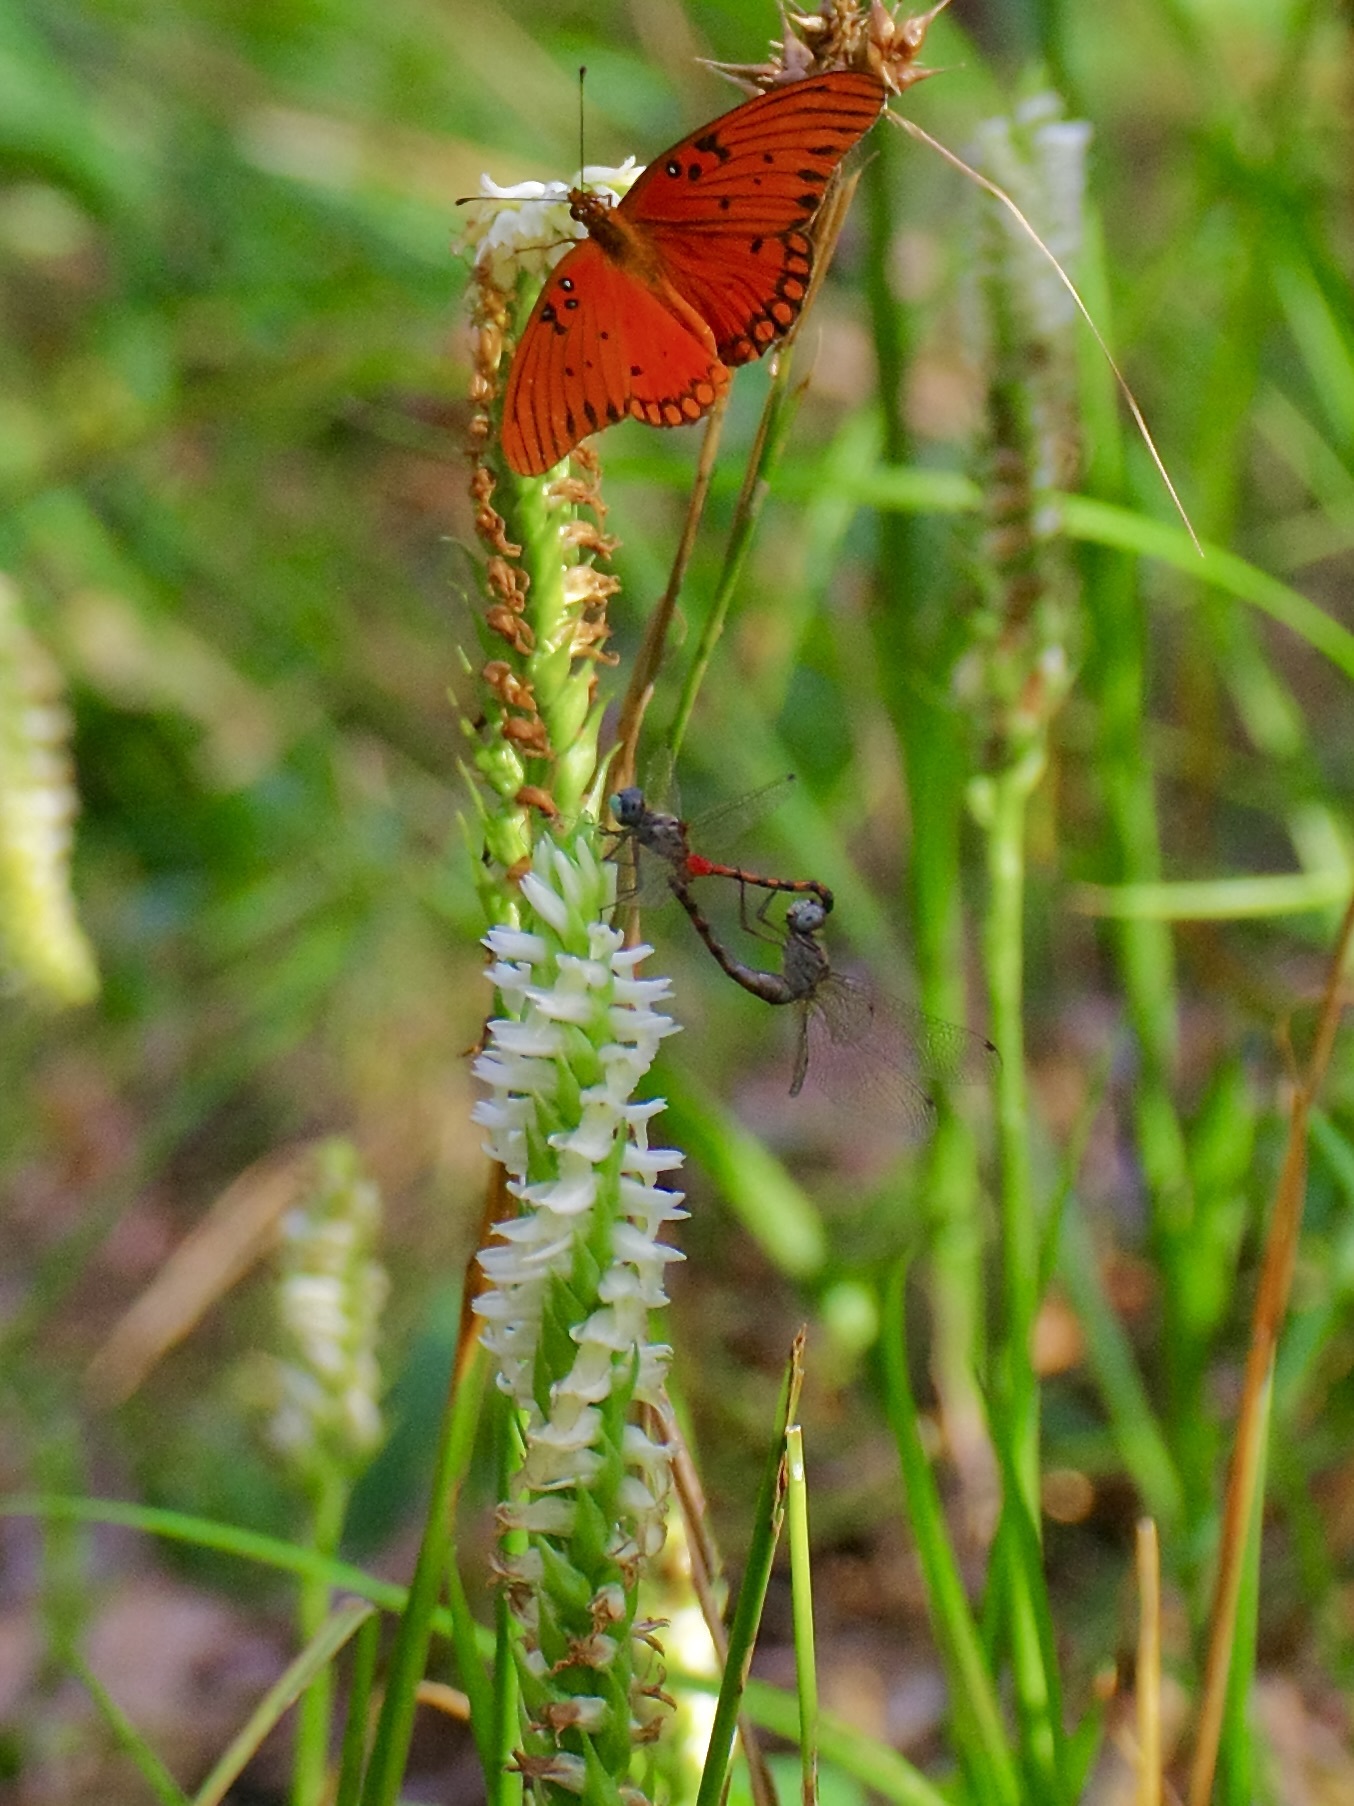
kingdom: Animalia
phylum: Arthropoda
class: Insecta
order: Odonata
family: Libellulidae
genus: Sympetrum
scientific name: Sympetrum ambiguum
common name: Blue-faced meadowhawk
